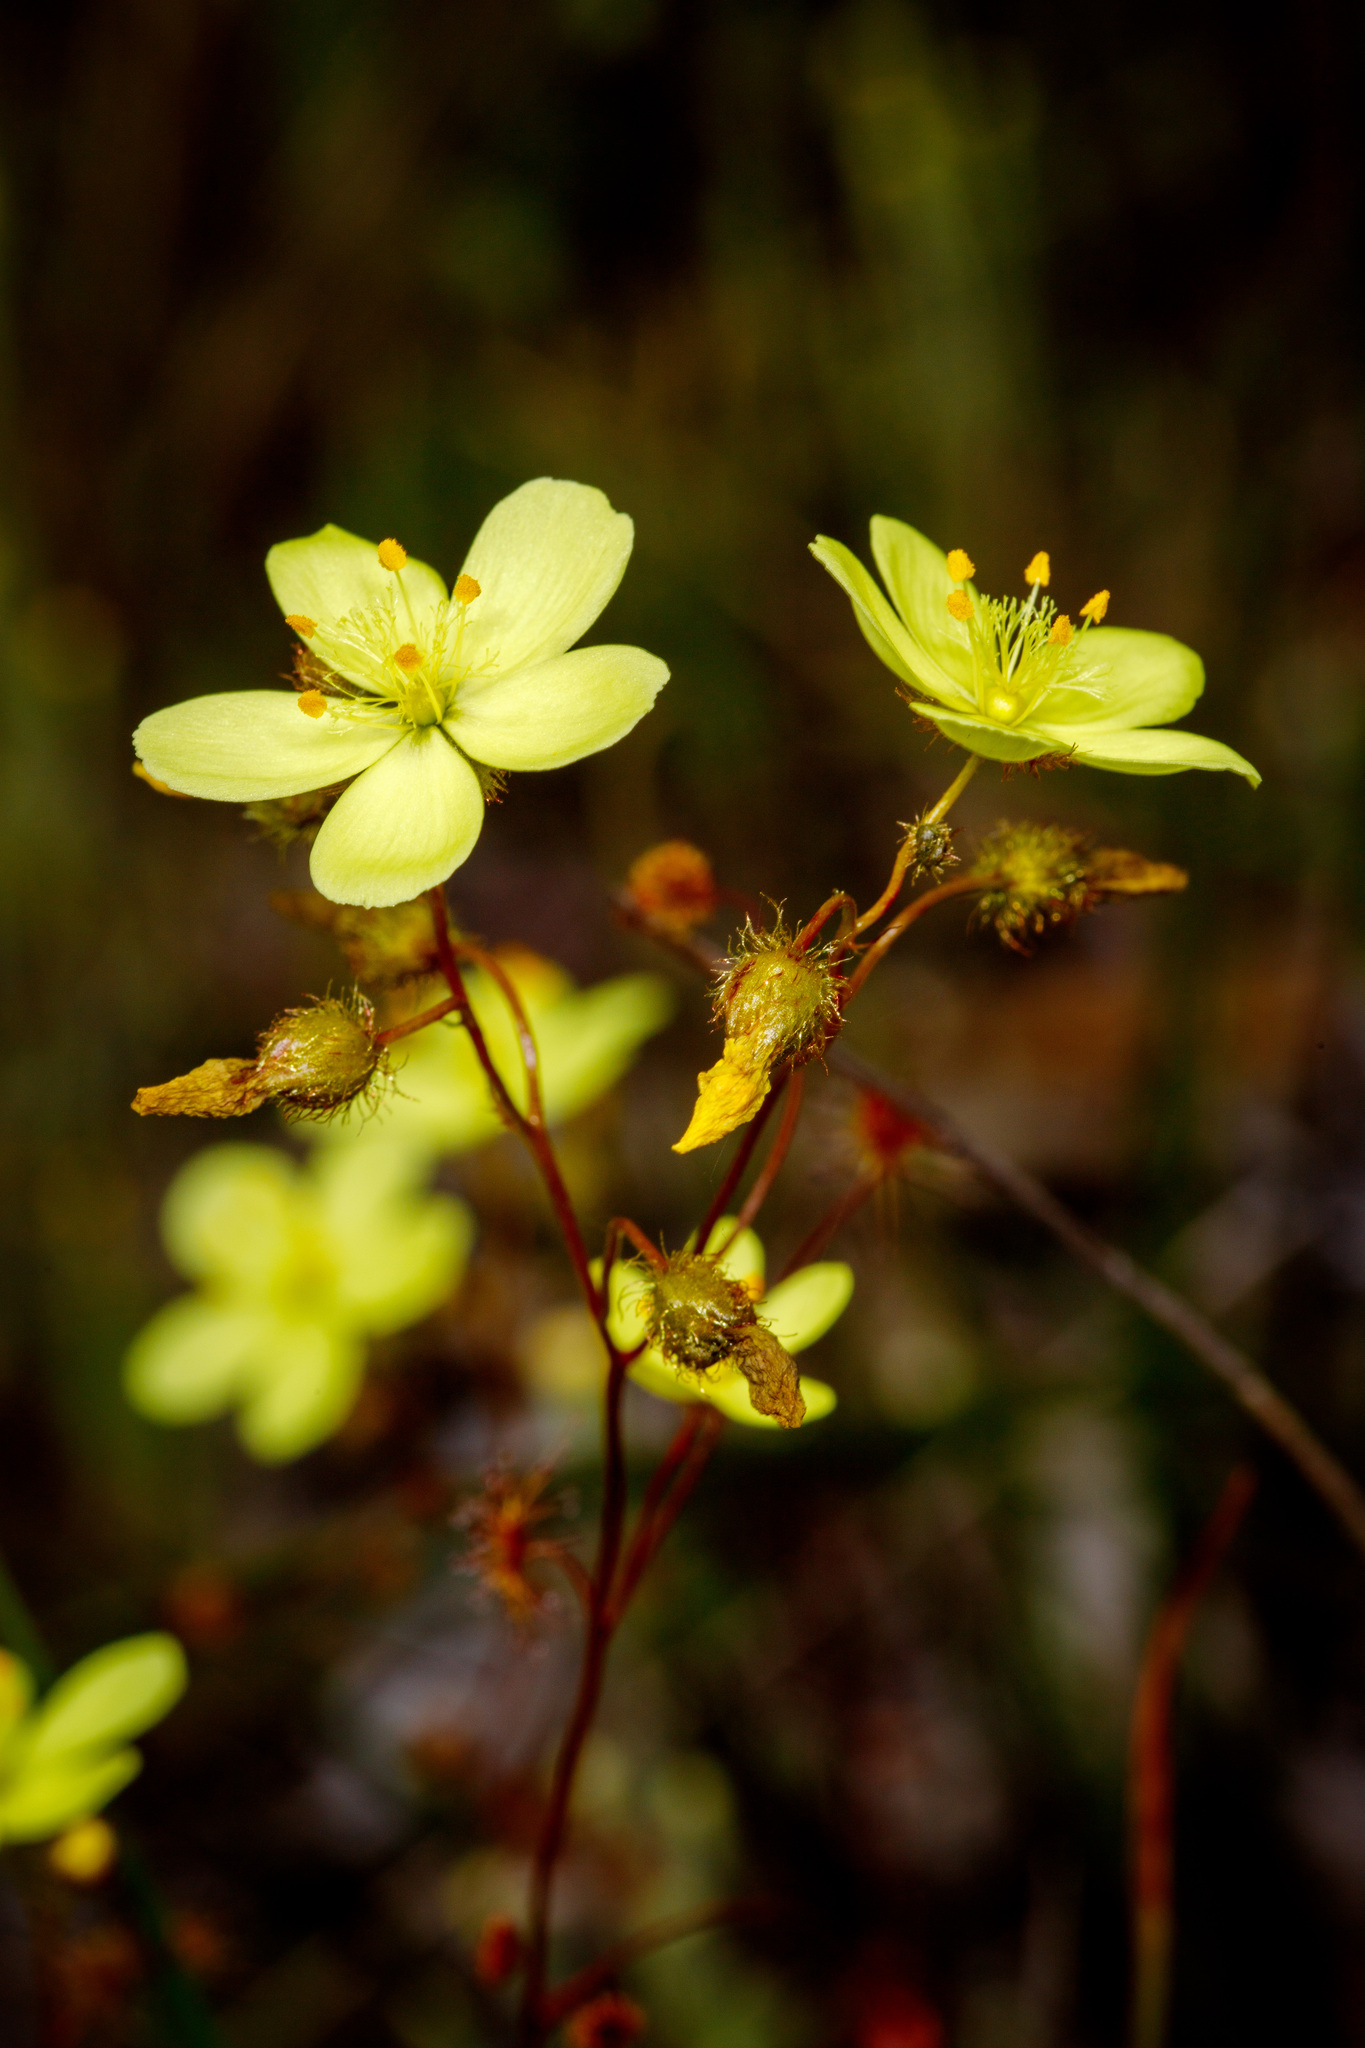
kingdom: Plantae
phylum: Tracheophyta
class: Magnoliopsida
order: Caryophyllales
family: Droseraceae
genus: Drosera
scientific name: Drosera intricata
